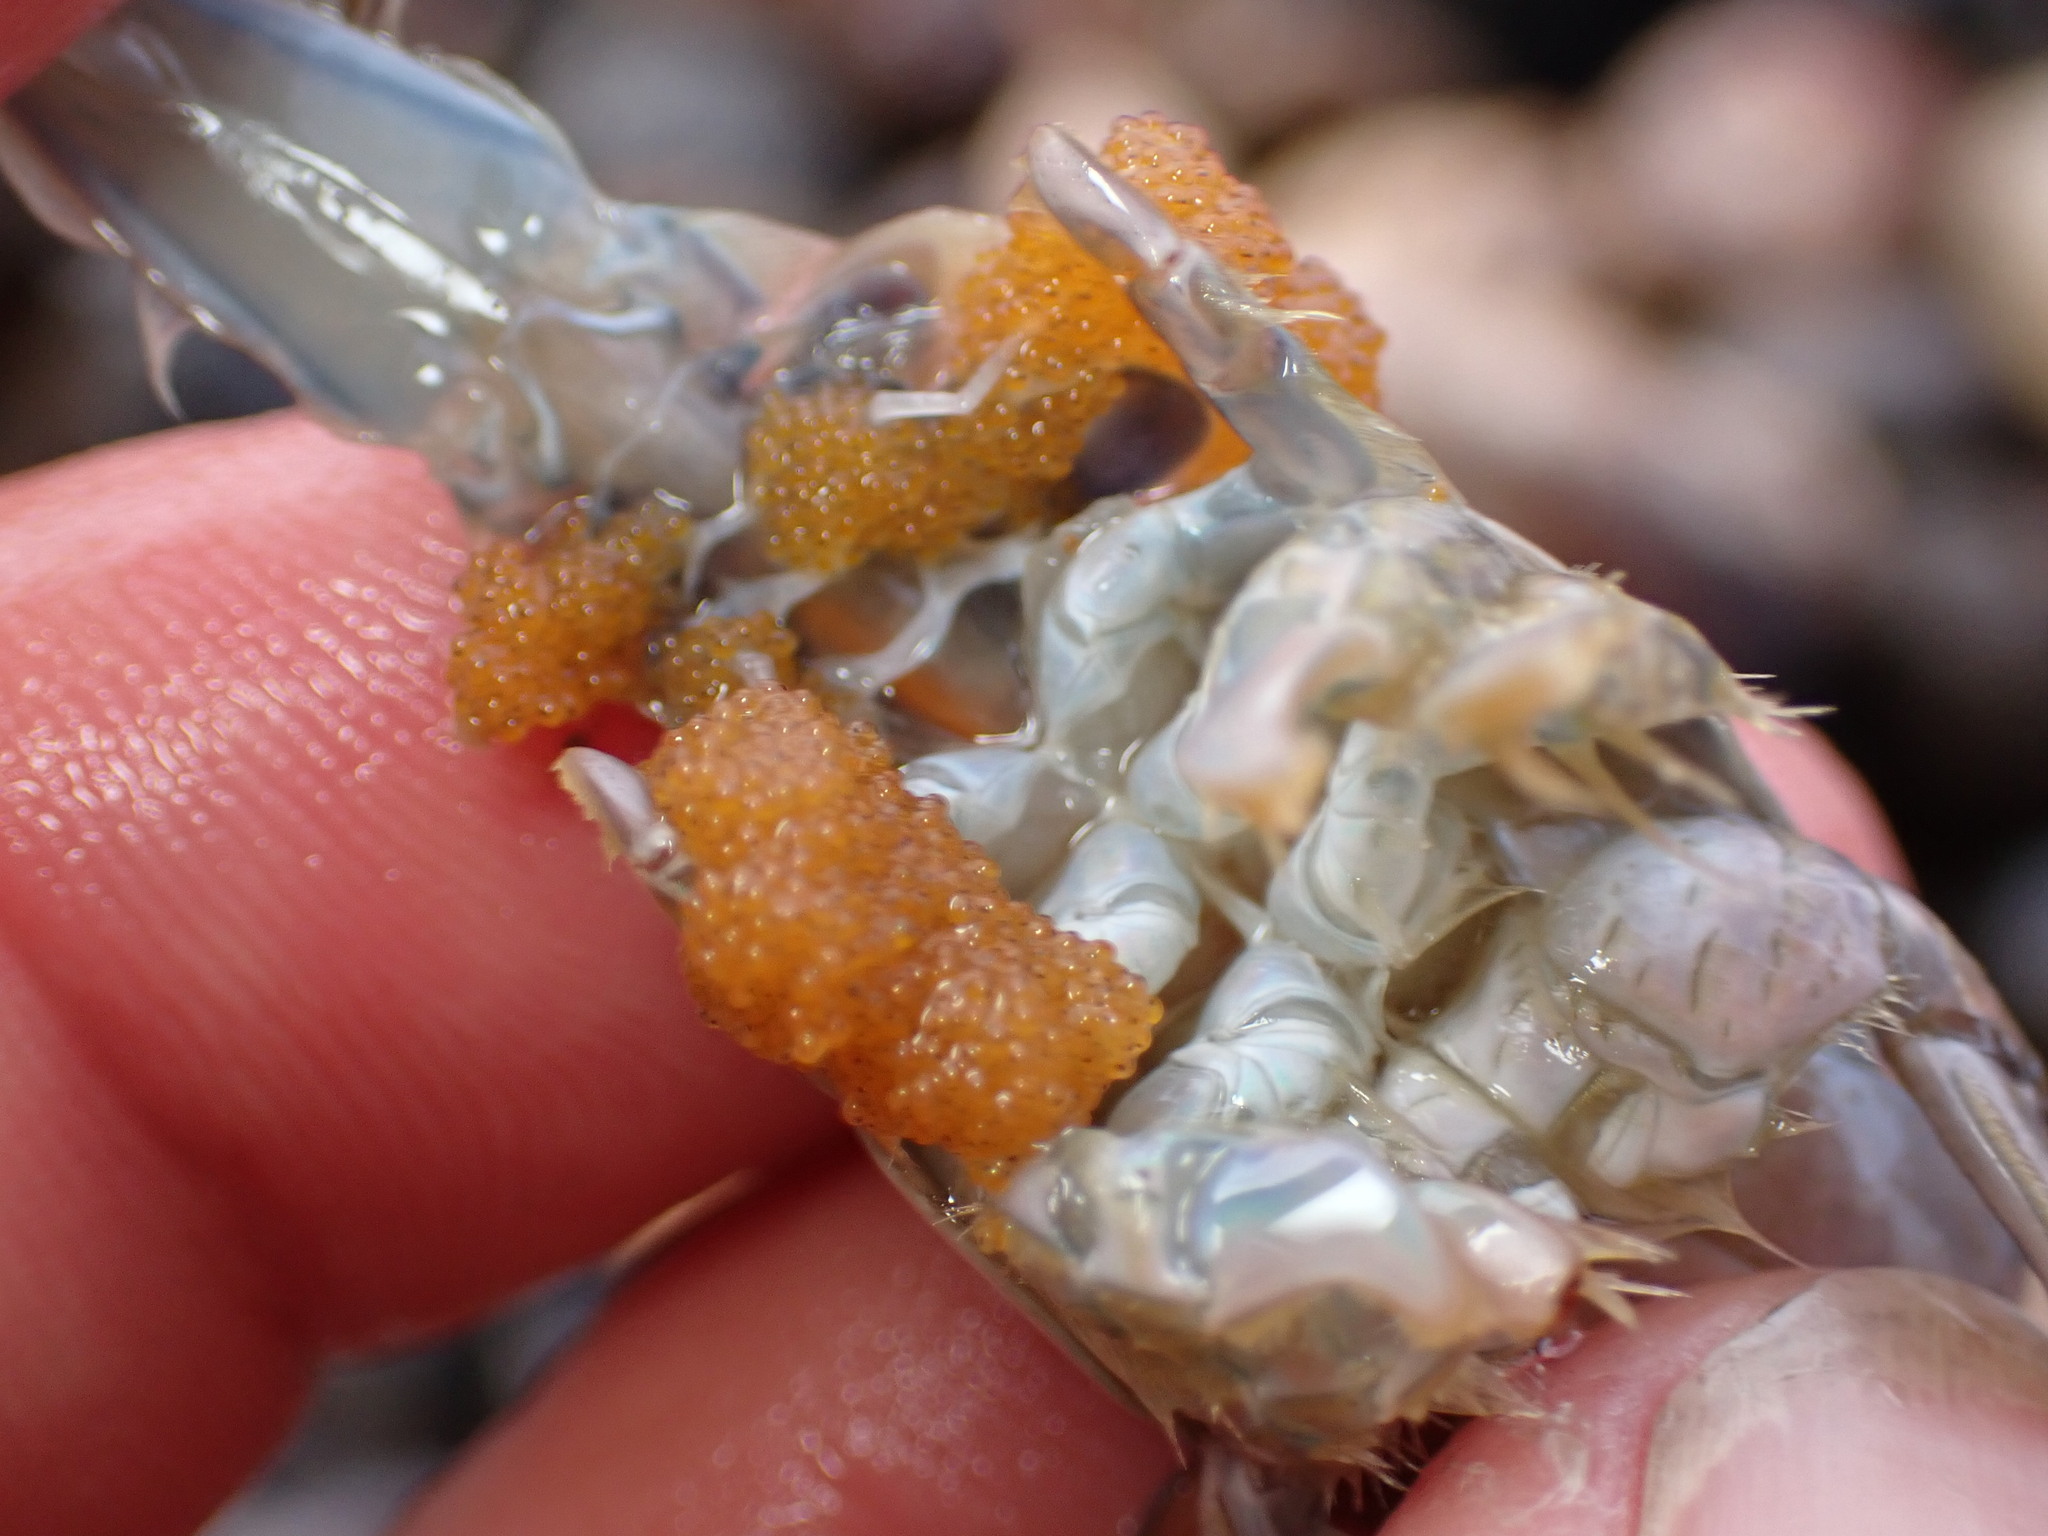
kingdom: Animalia
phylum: Arthropoda
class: Malacostraca
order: Decapoda
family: Hippidae
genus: Emerita
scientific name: Emerita analoga
